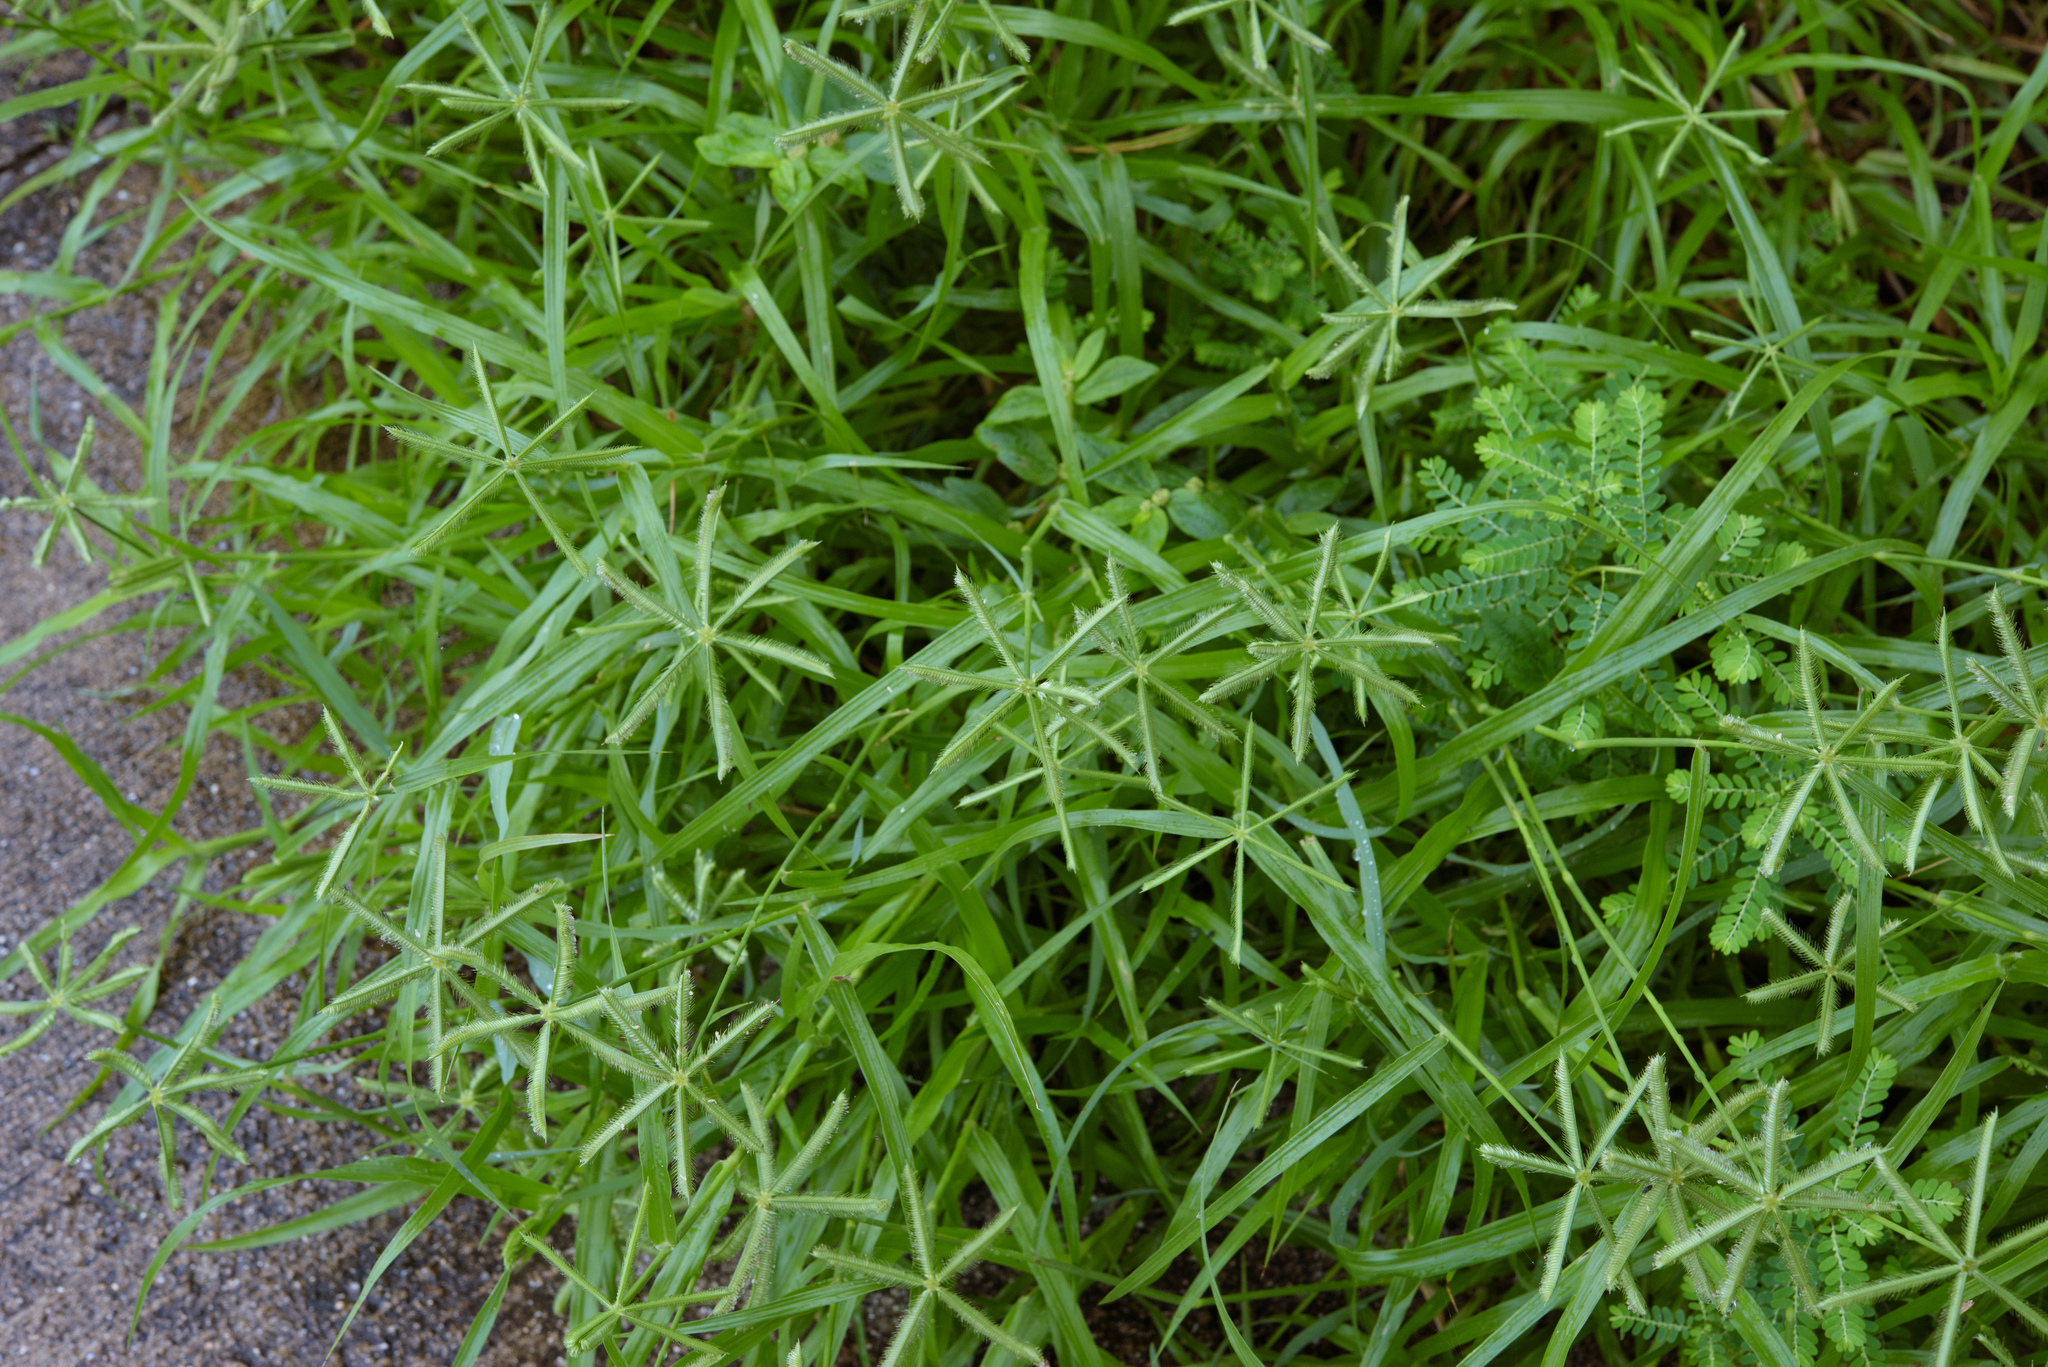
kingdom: Plantae
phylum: Tracheophyta
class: Liliopsida
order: Poales
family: Poaceae
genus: Dactyloctenium
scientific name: Dactyloctenium aegyptium
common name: Egyptian grass
